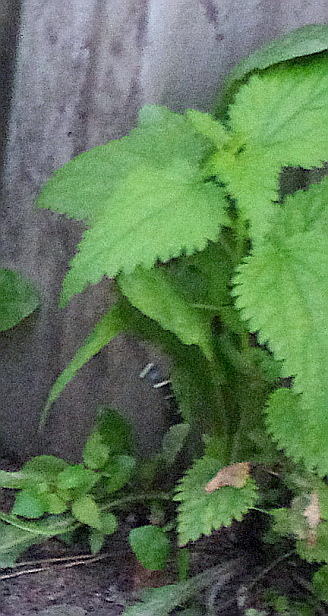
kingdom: Plantae
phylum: Tracheophyta
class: Magnoliopsida
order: Rosales
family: Urticaceae
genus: Urtica
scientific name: Urtica dioica
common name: Common nettle
